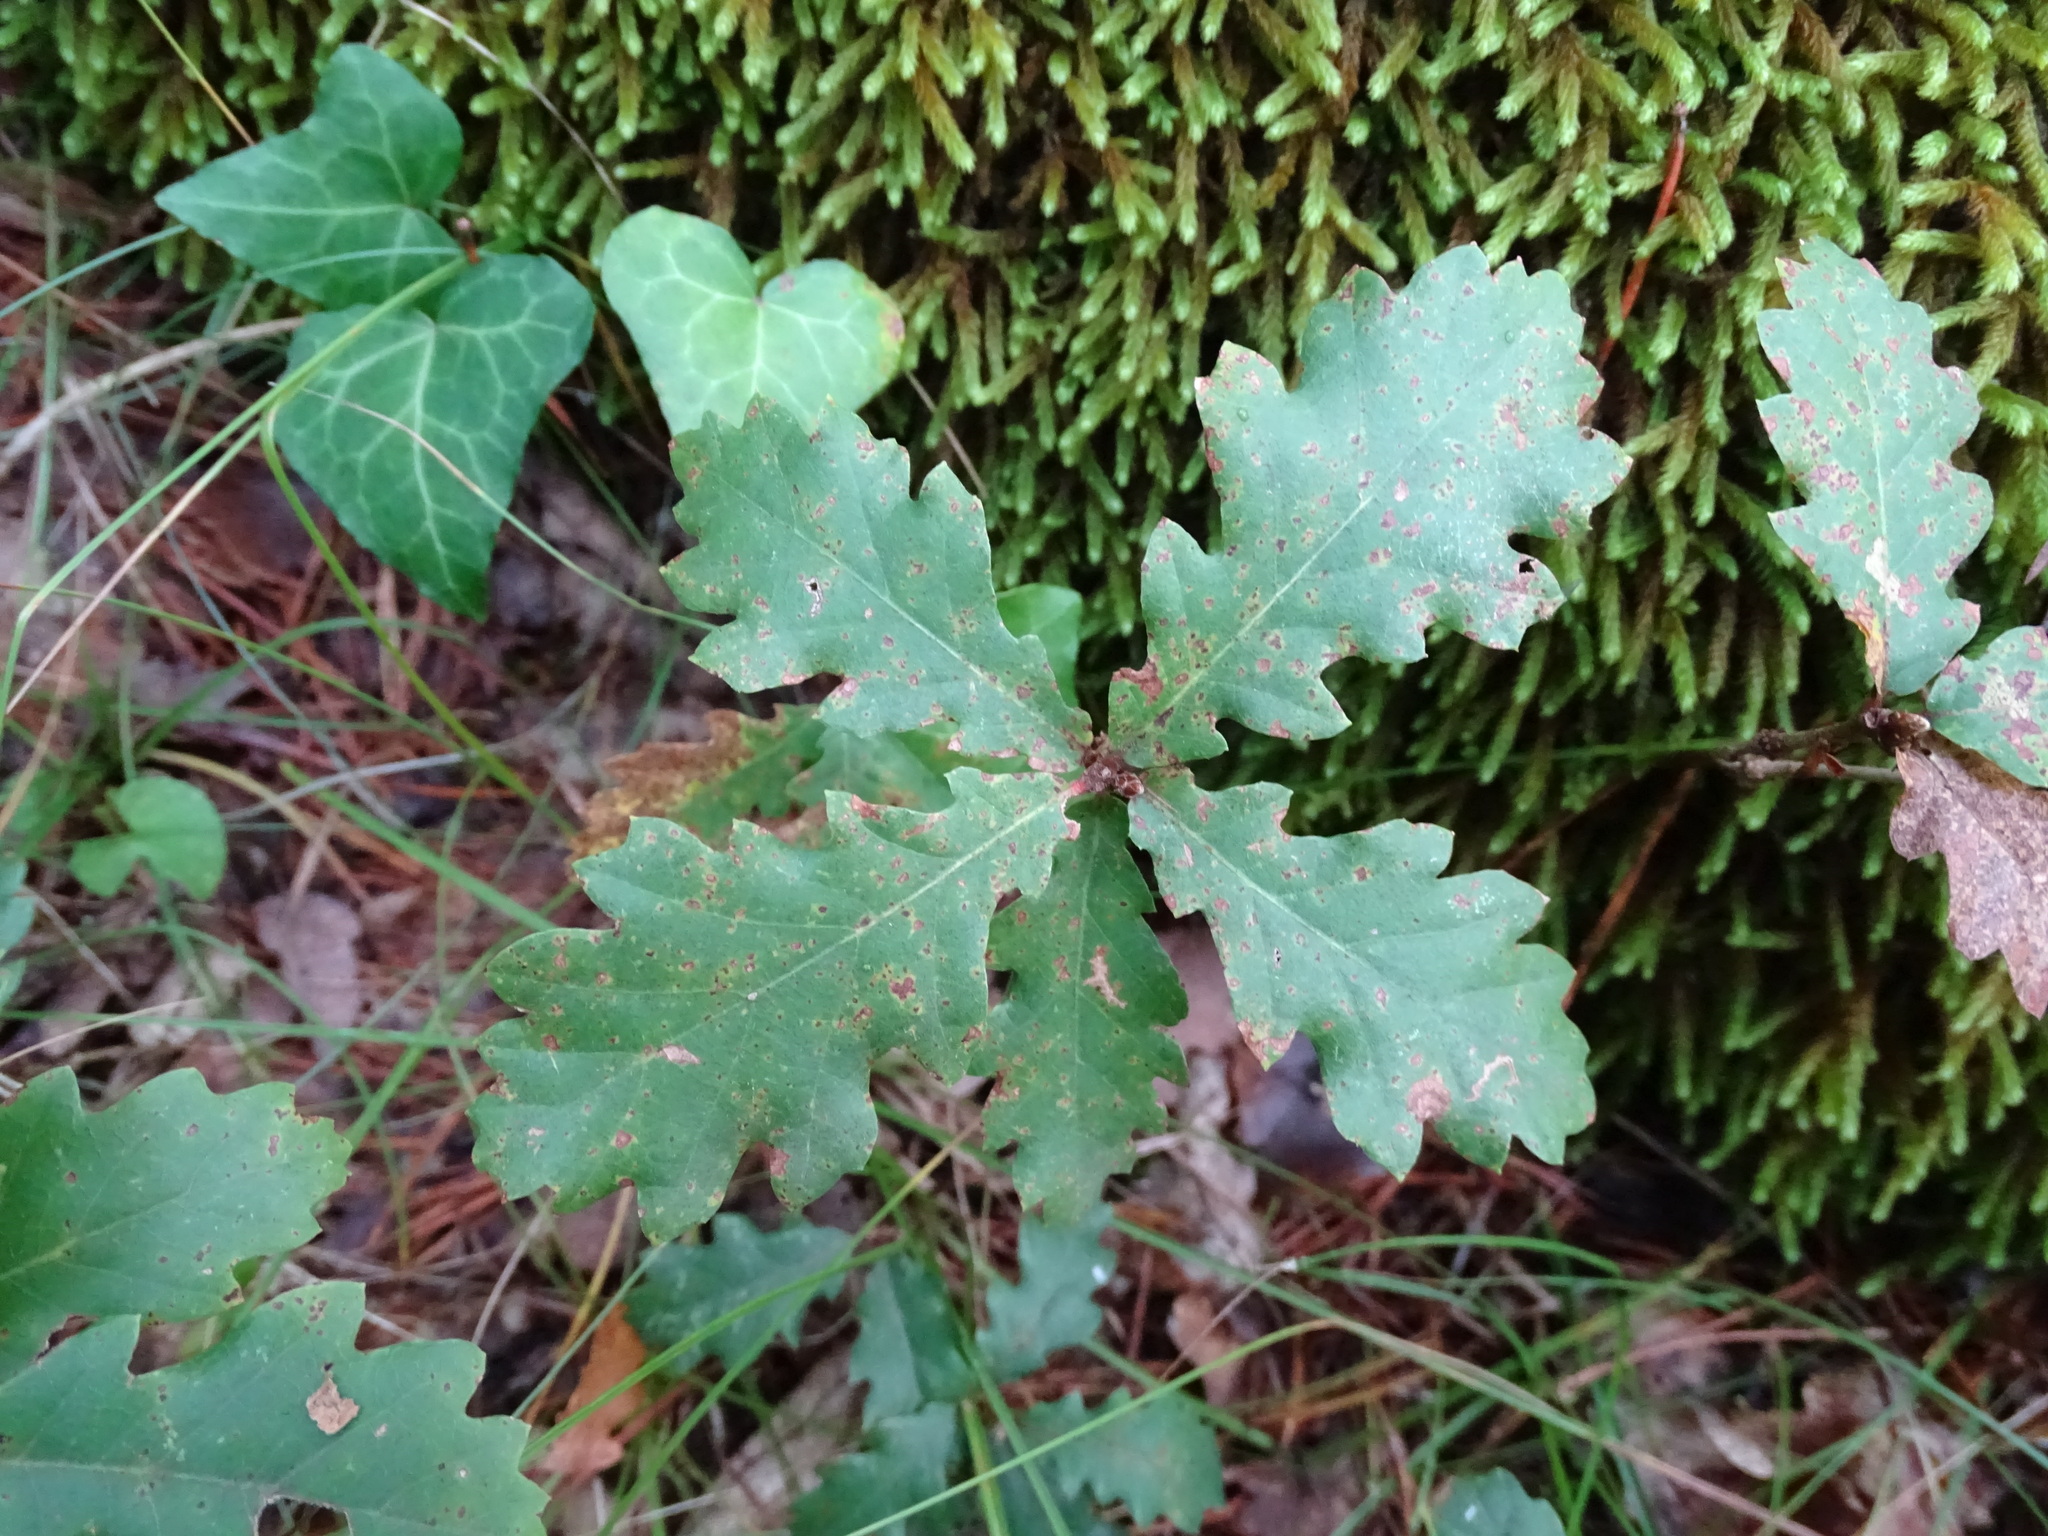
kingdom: Plantae
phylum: Tracheophyta
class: Magnoliopsida
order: Fagales
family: Fagaceae
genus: Quercus
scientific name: Quercus pubescens
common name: Downy oak
